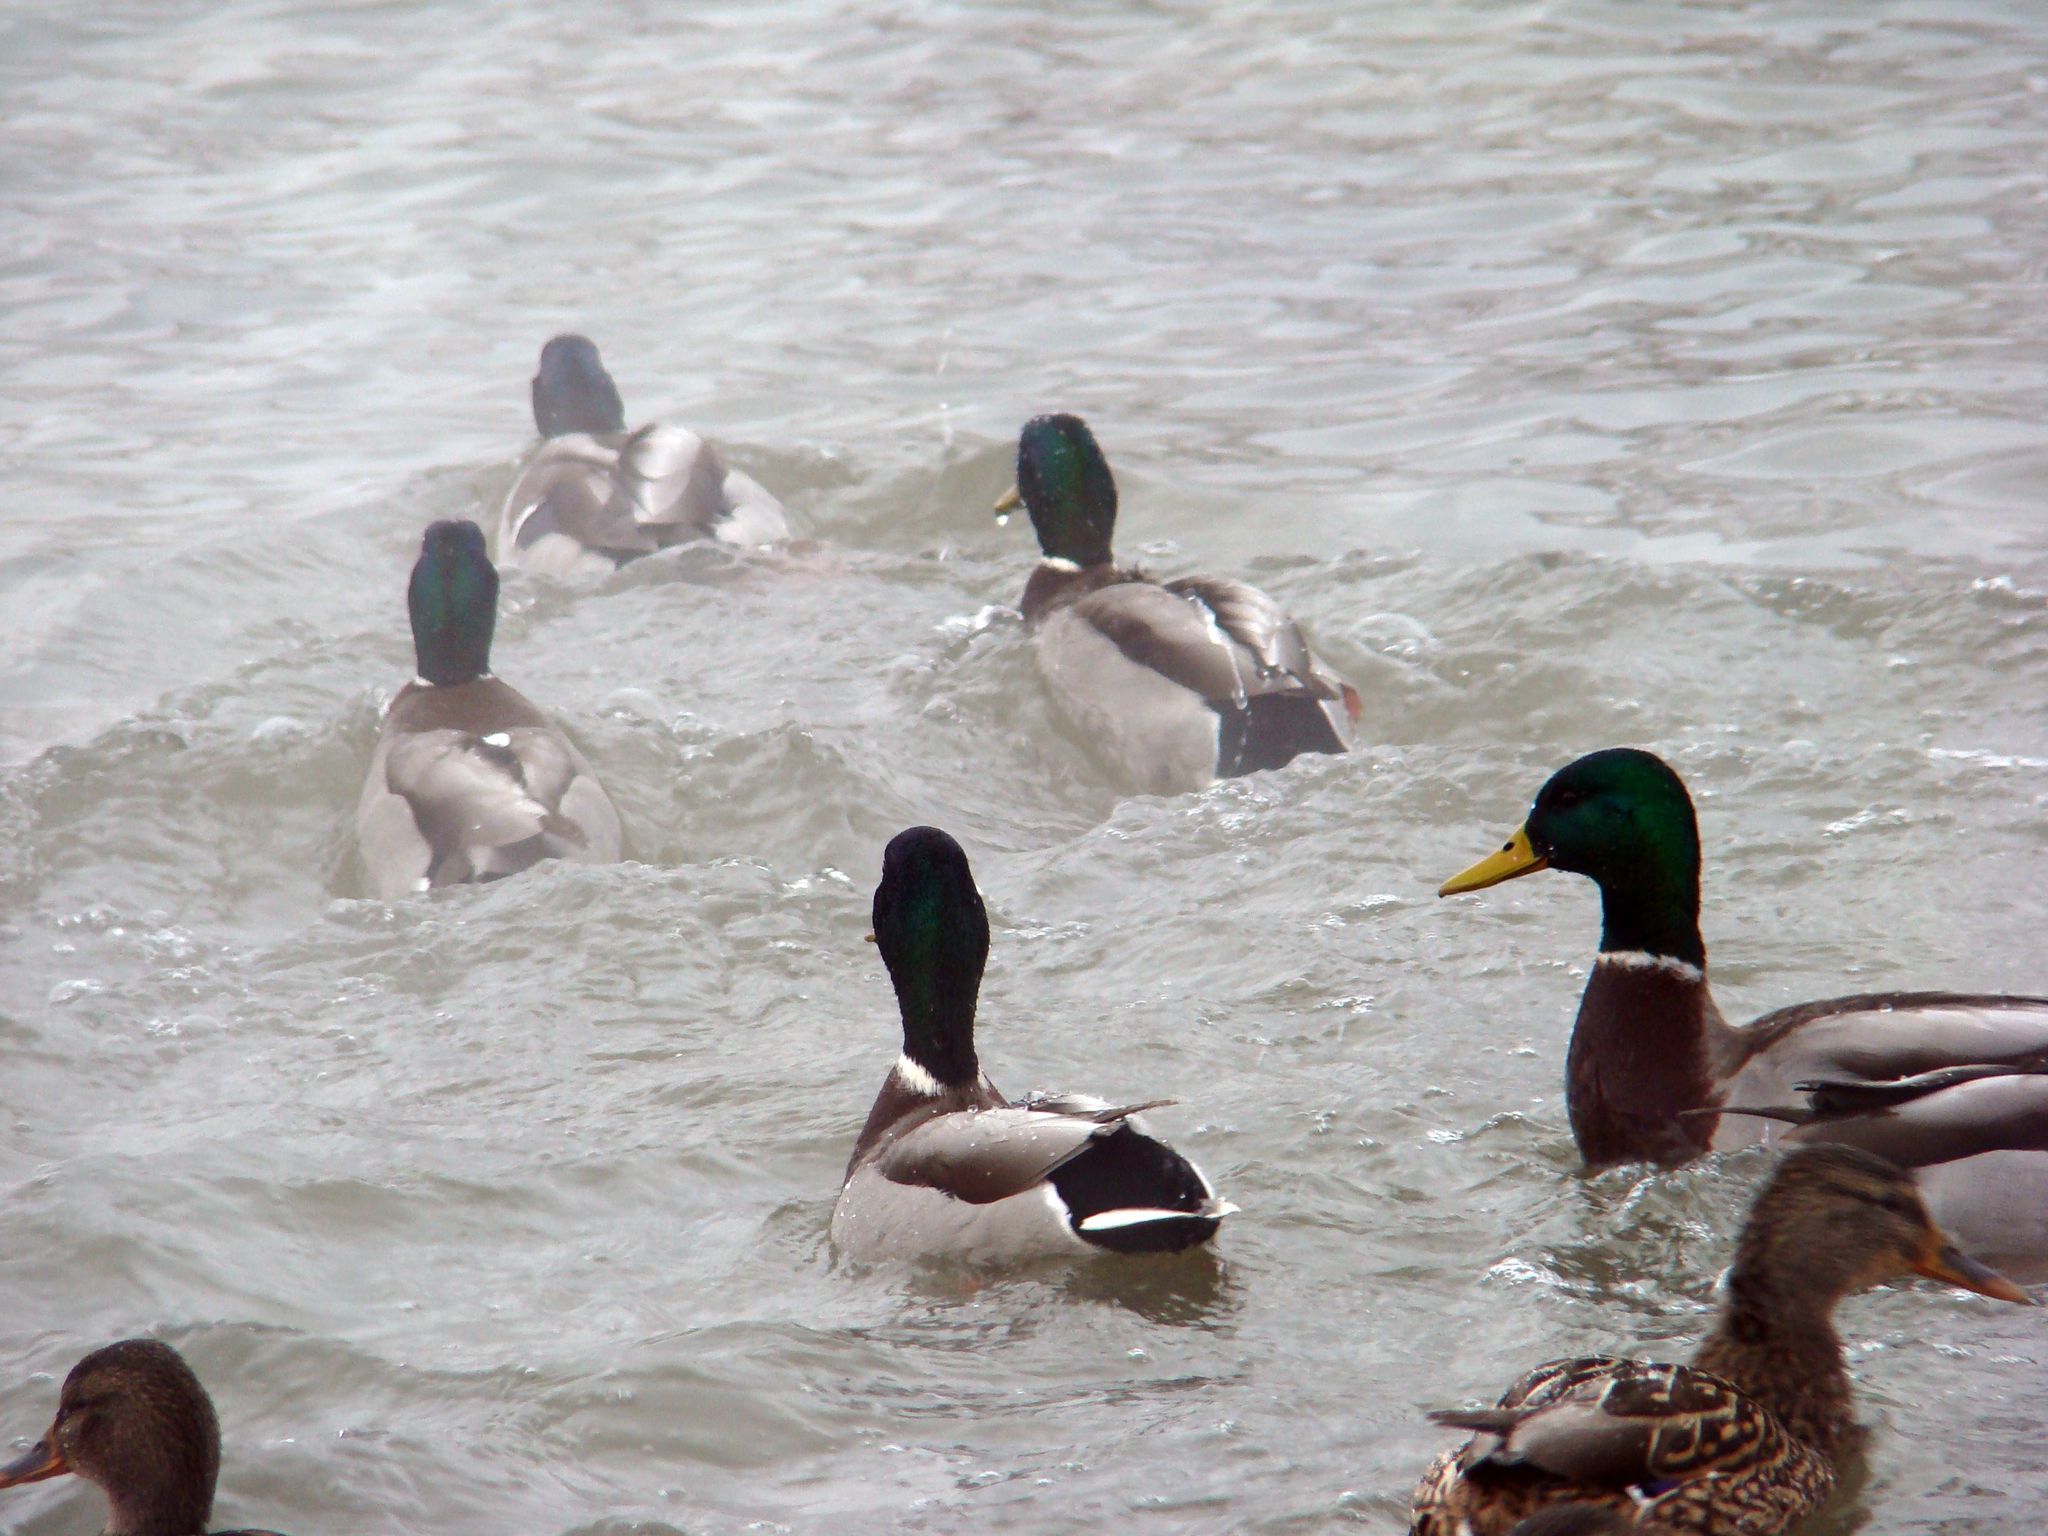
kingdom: Animalia
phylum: Chordata
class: Aves
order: Anseriformes
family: Anatidae
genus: Anas
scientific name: Anas platyrhynchos
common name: Mallard
